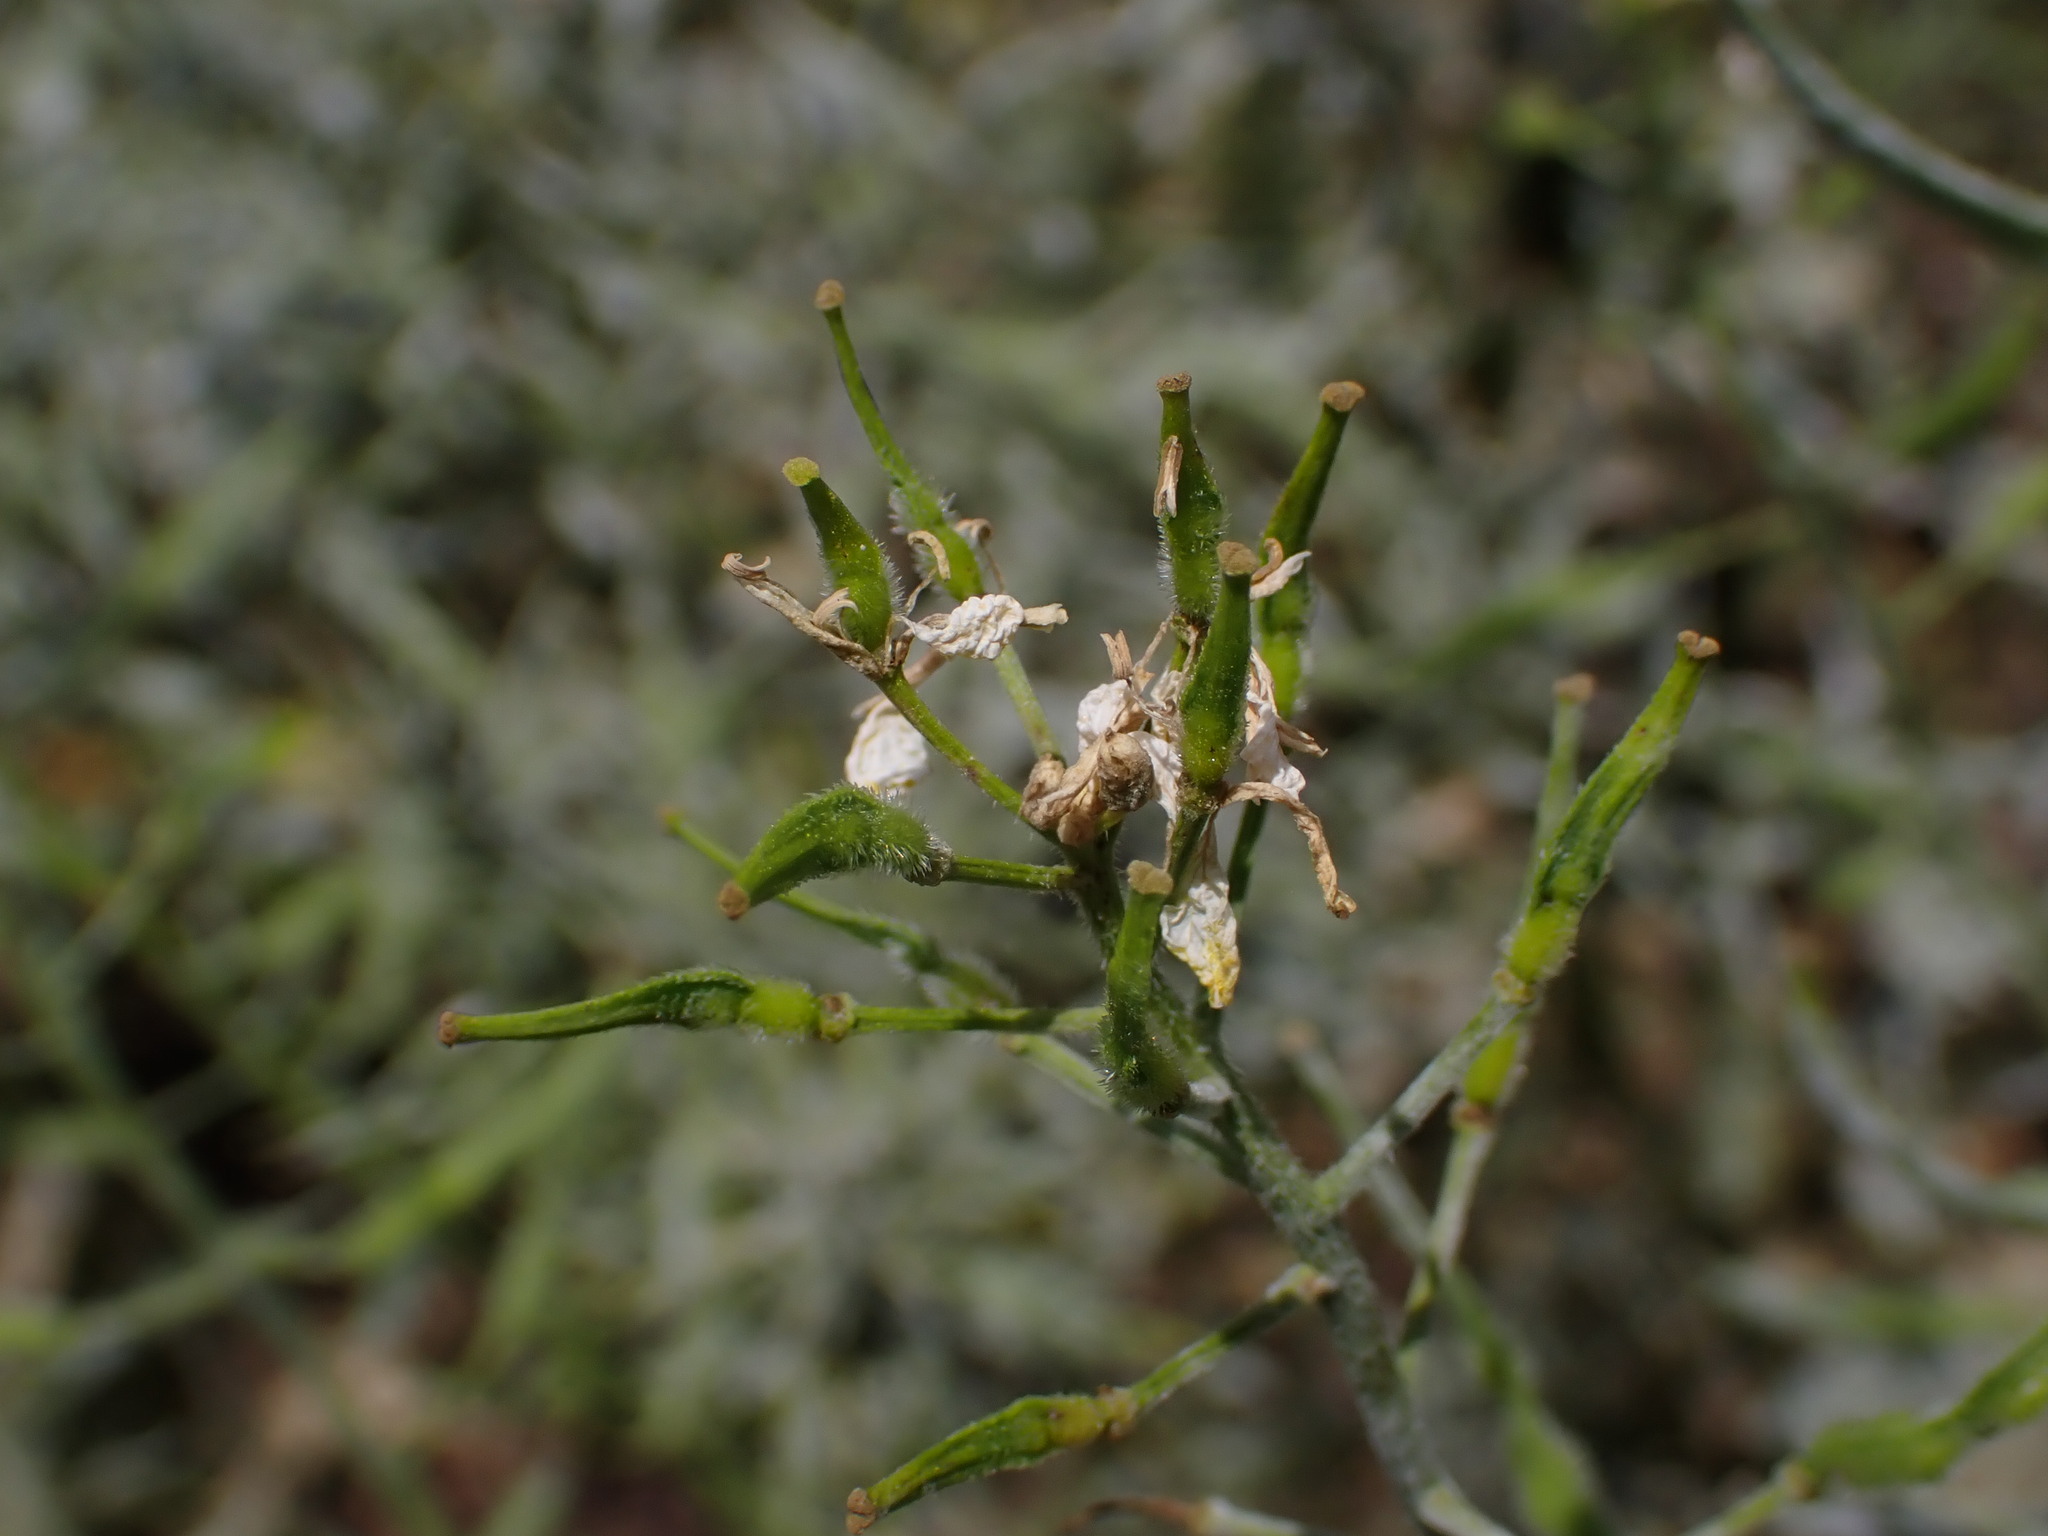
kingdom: Plantae
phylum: Tracheophyta
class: Magnoliopsida
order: Brassicales
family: Brassicaceae
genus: Sinapis
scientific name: Sinapis alba
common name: White mustard
